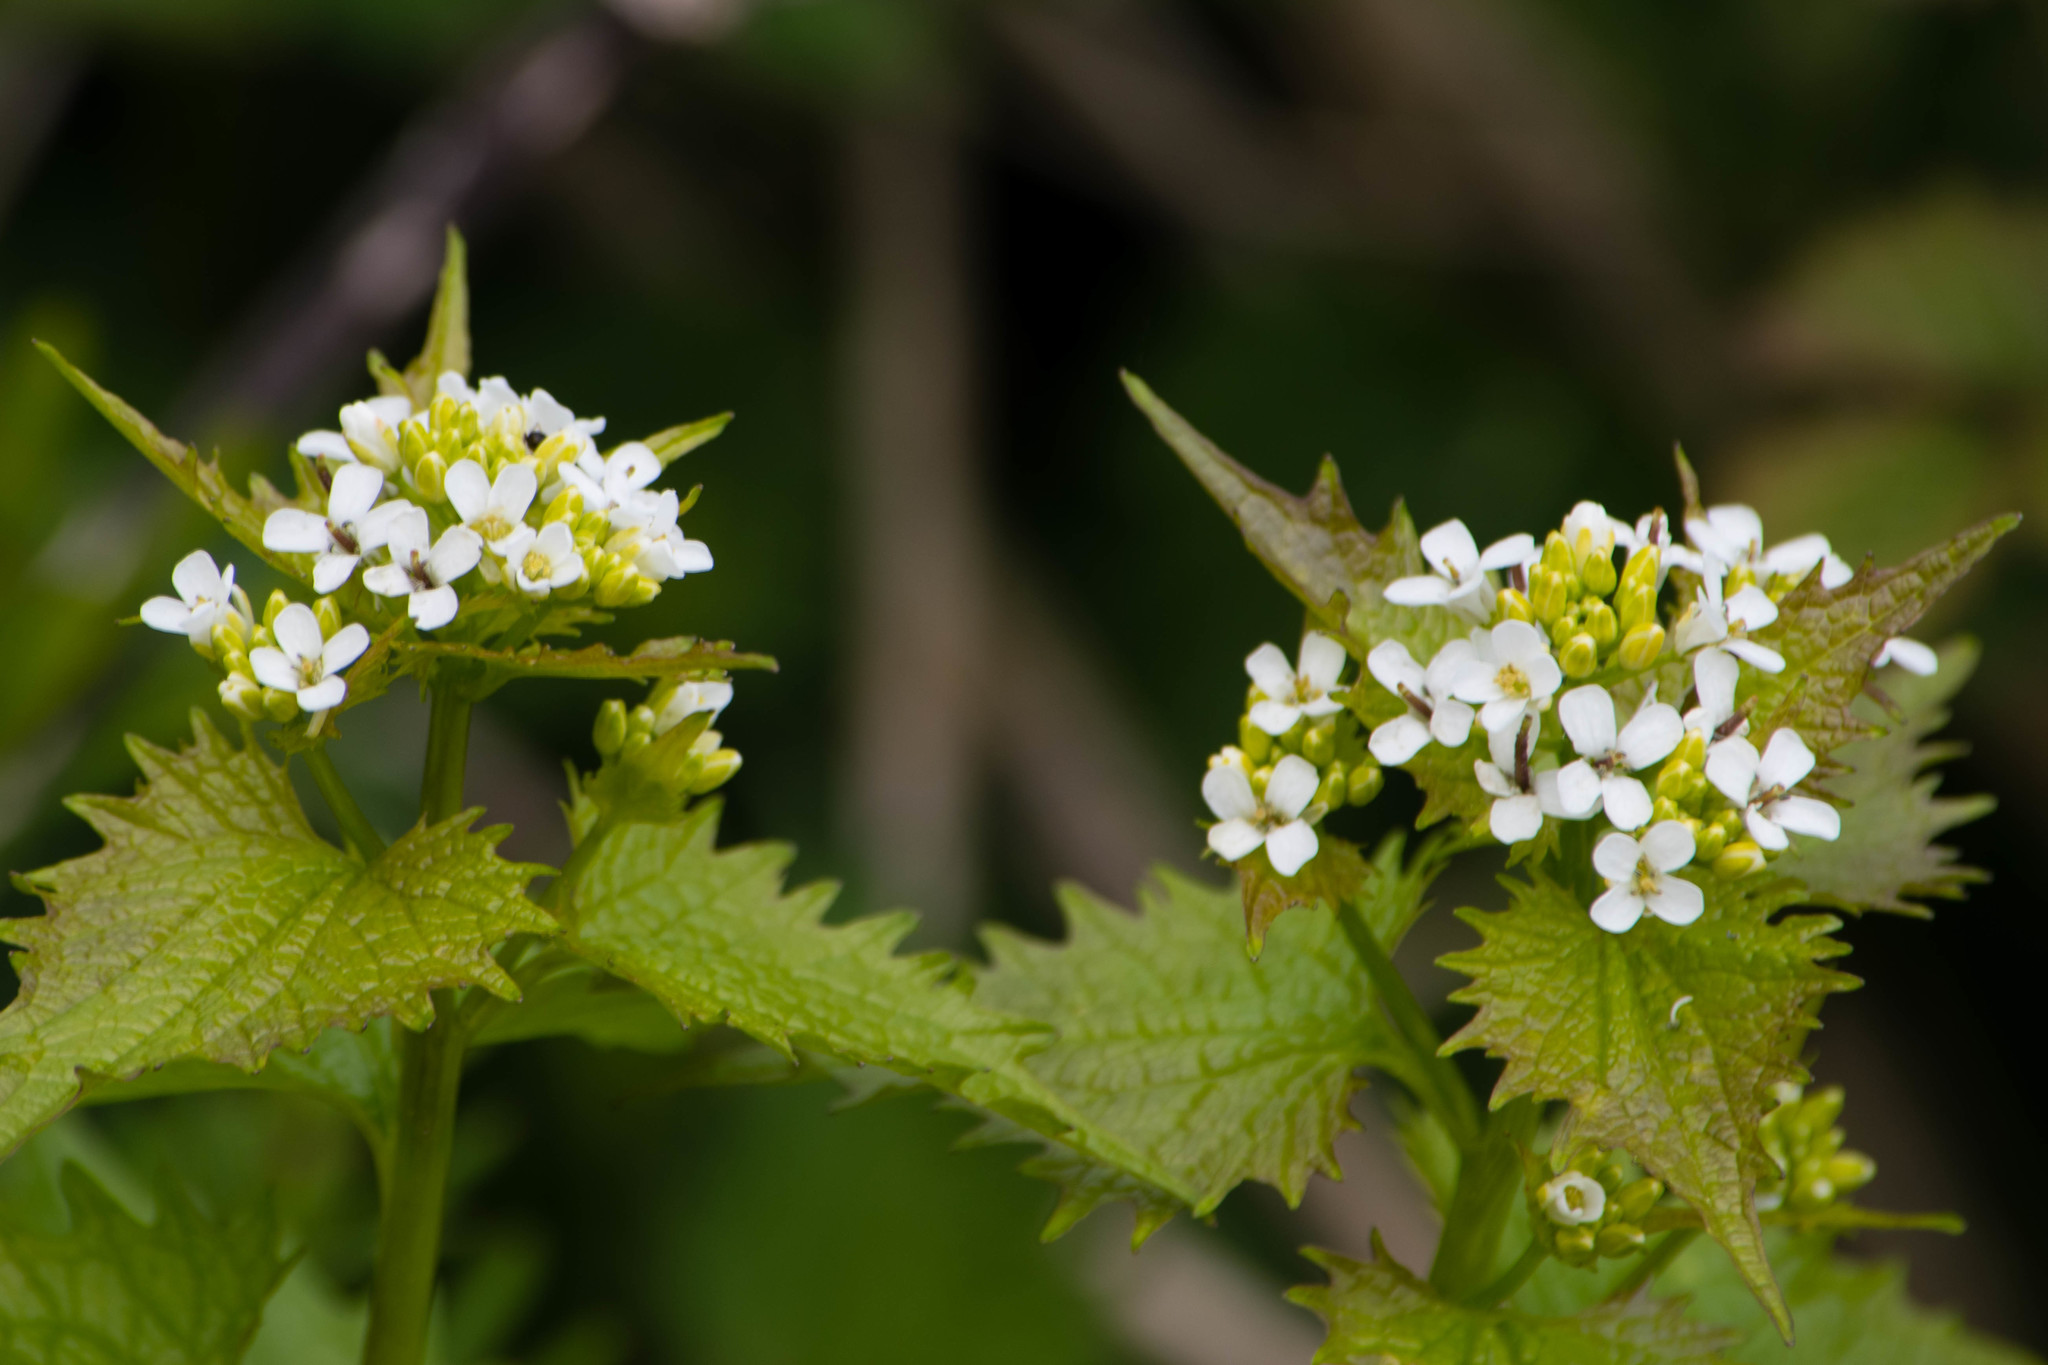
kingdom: Plantae
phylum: Tracheophyta
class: Magnoliopsida
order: Brassicales
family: Brassicaceae
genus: Alliaria
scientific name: Alliaria petiolata
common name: Garlic mustard
